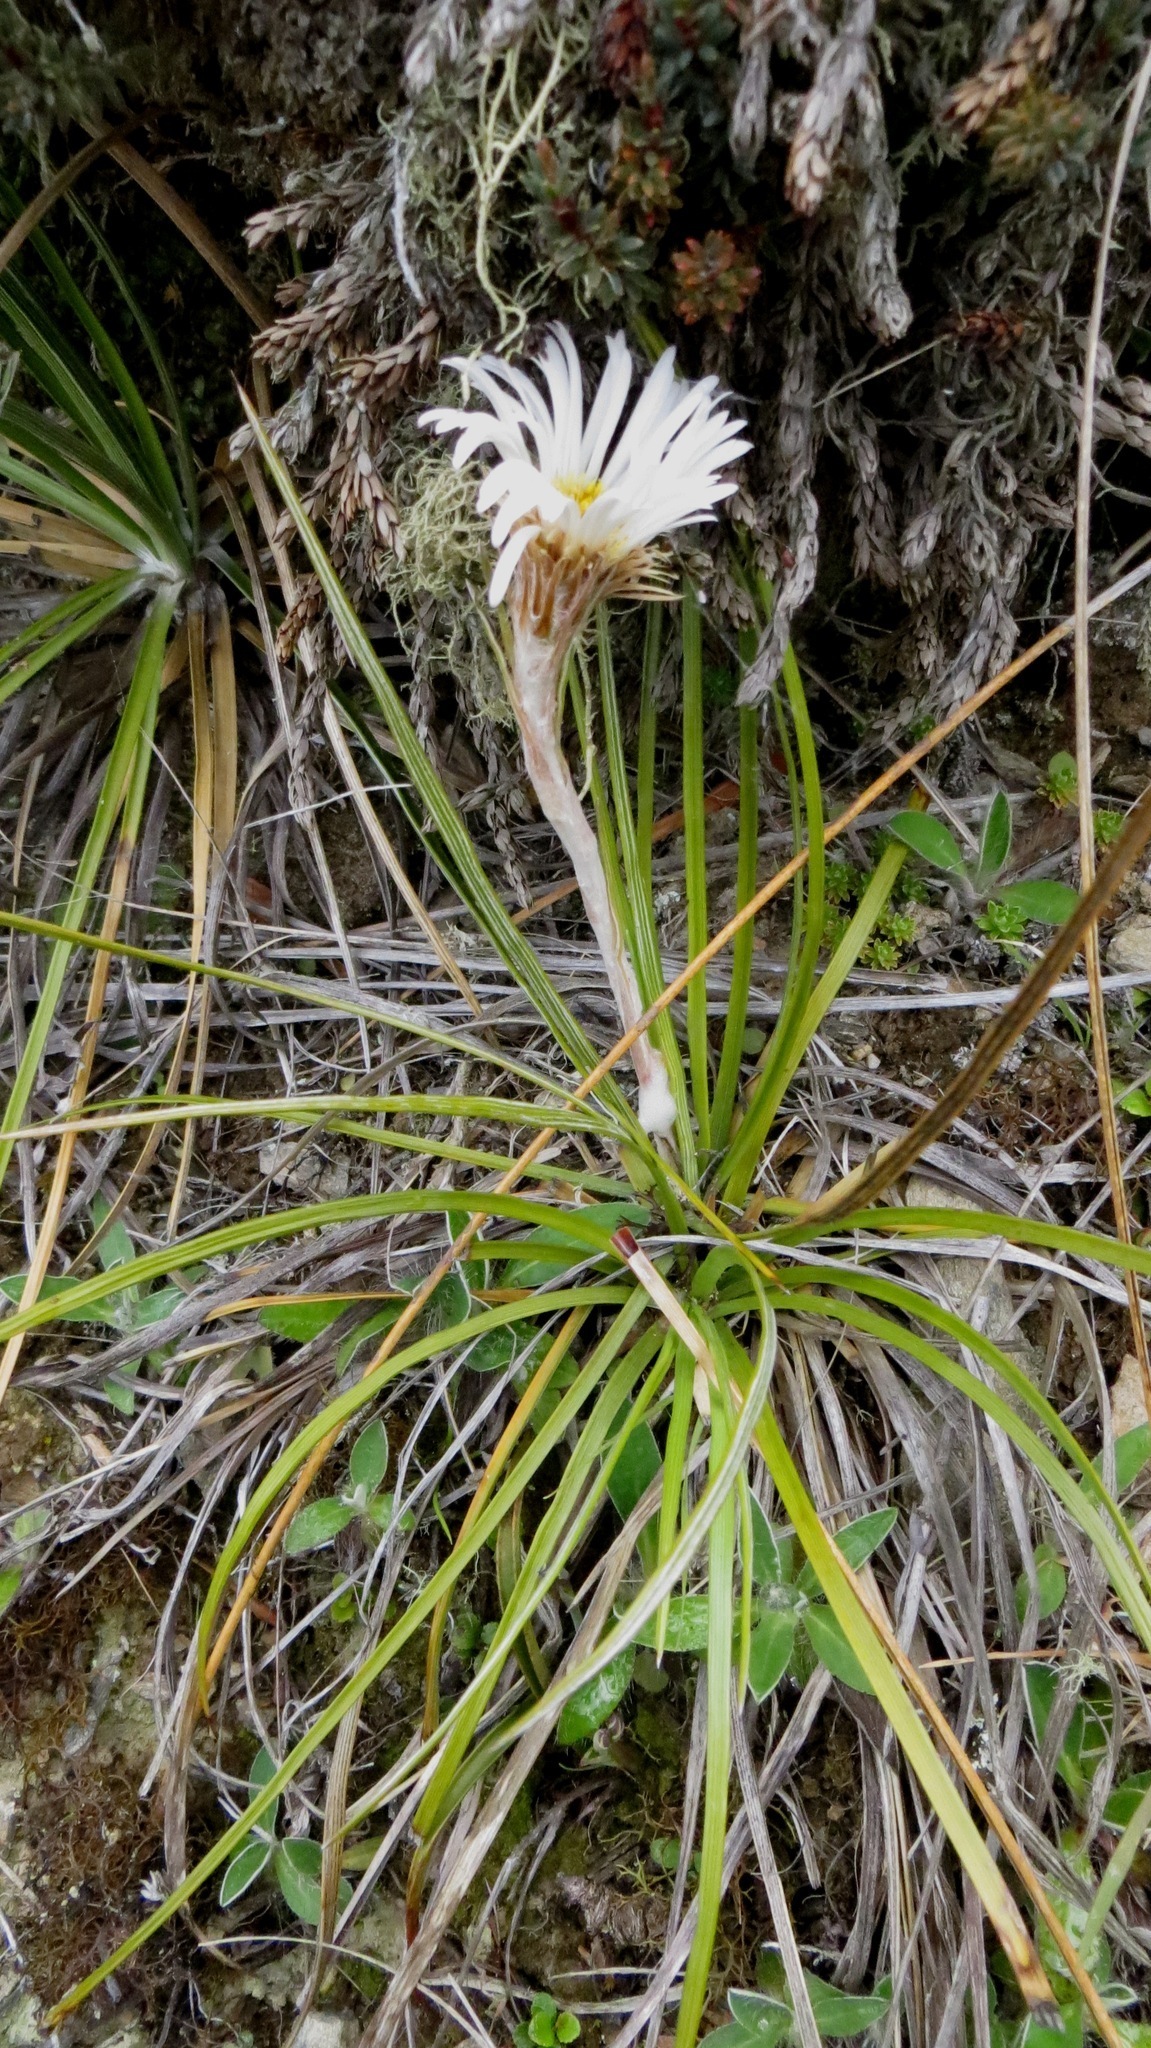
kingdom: Plantae
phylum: Tracheophyta
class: Magnoliopsida
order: Asterales
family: Asteraceae
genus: Celmisia
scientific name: Celmisia lyallii
